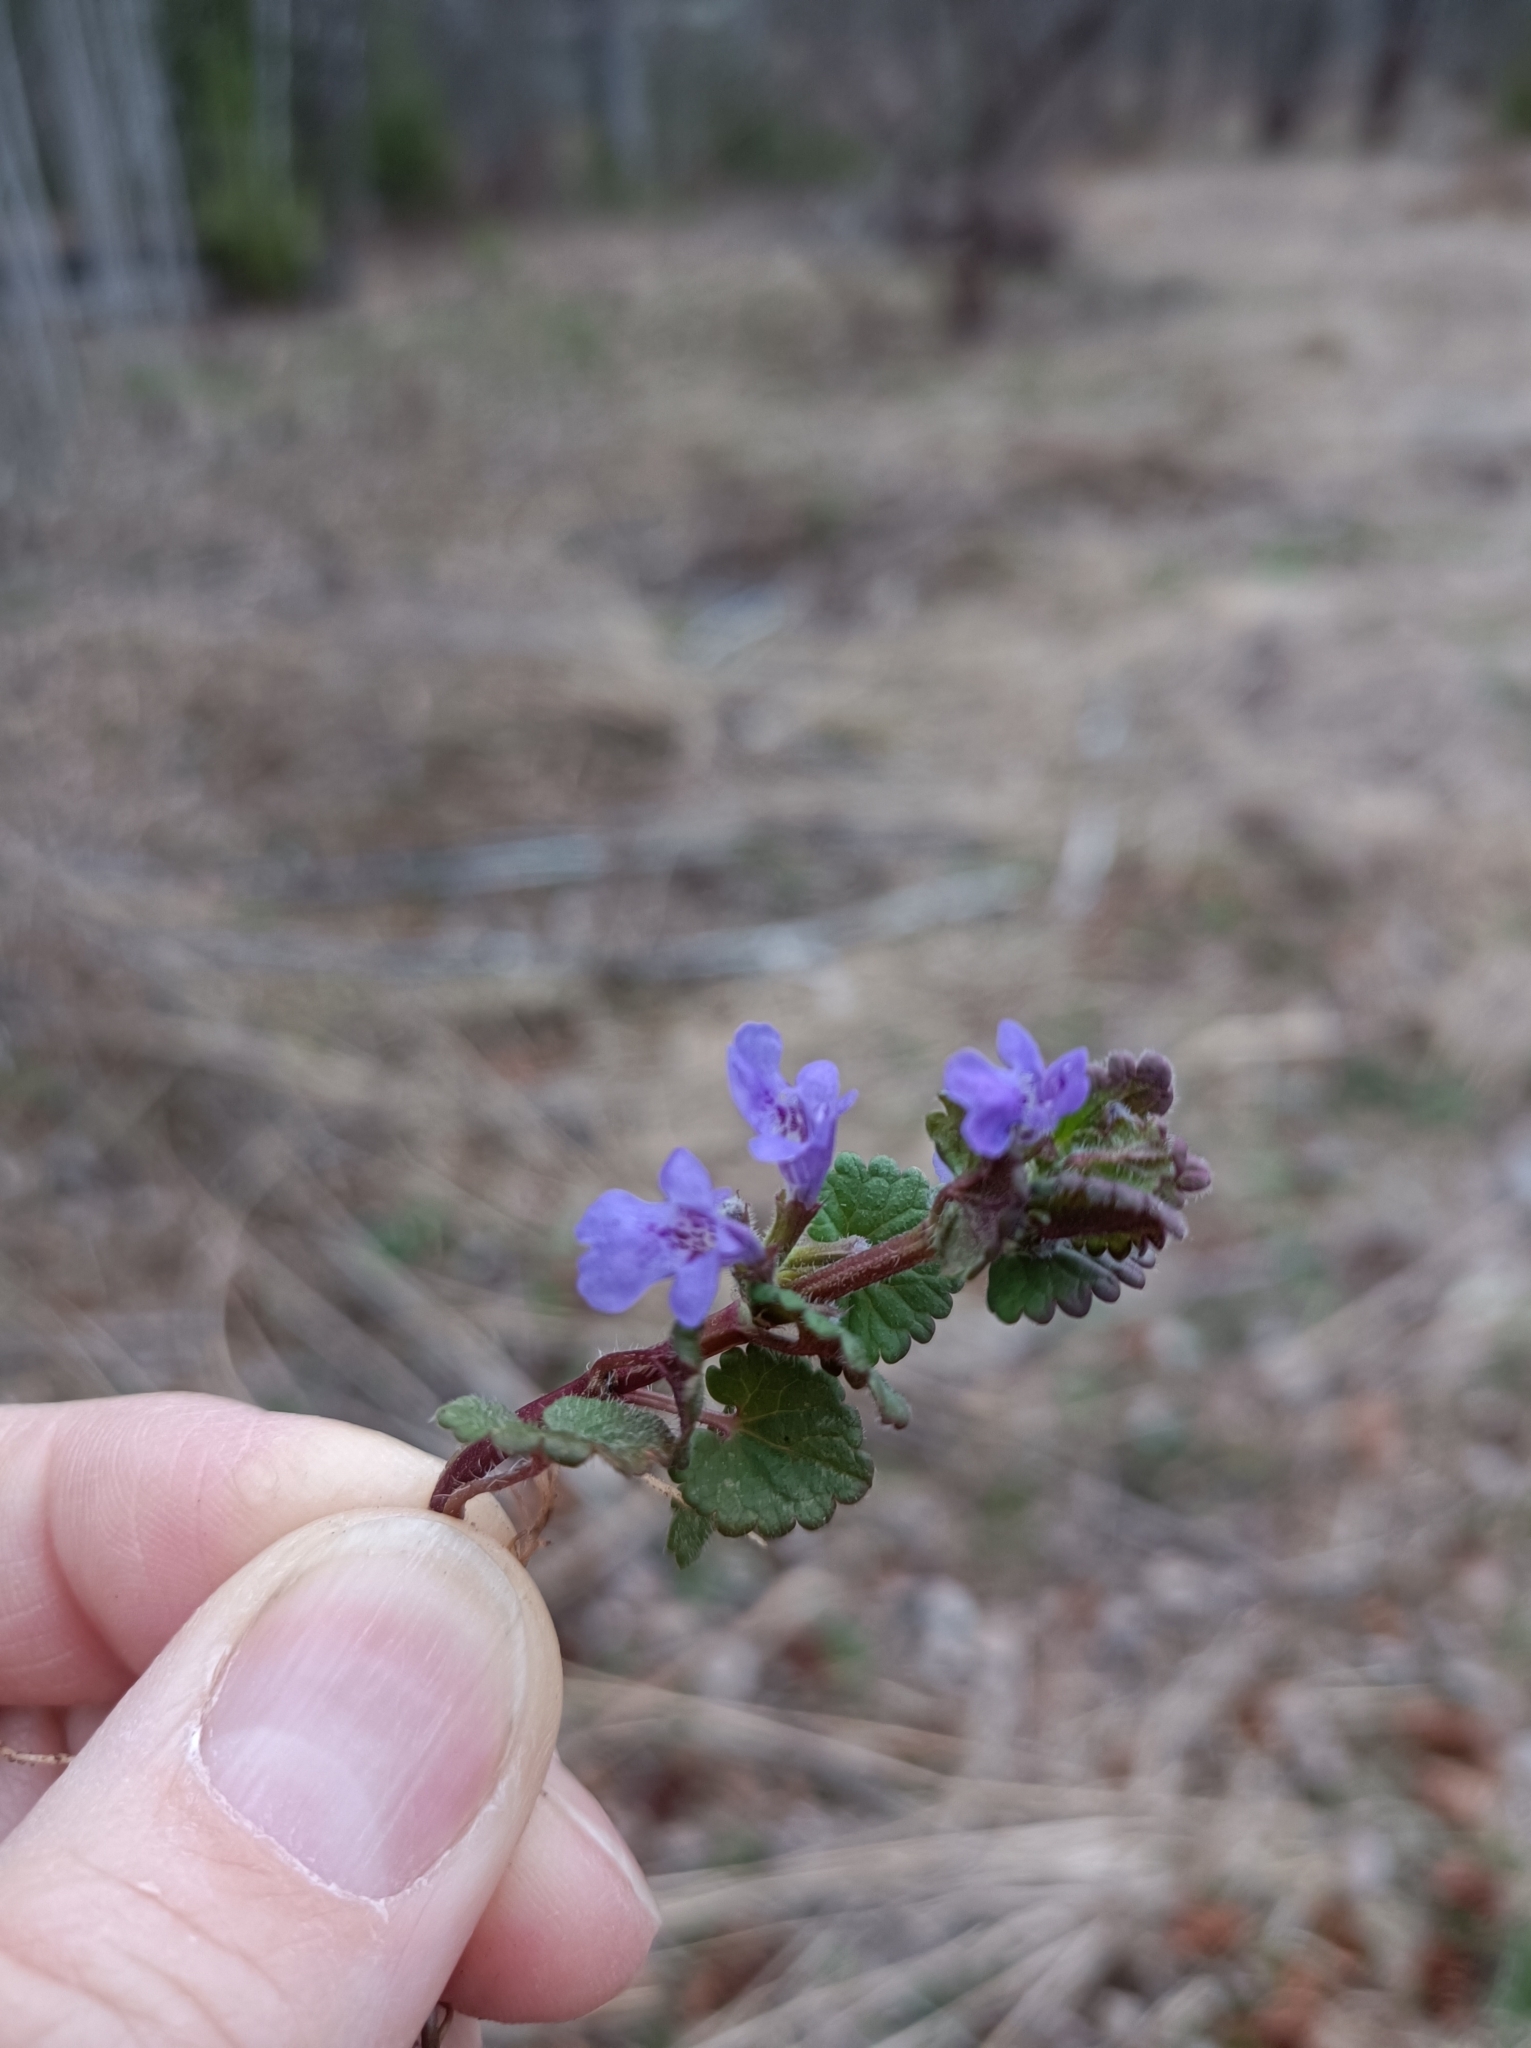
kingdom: Plantae
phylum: Tracheophyta
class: Magnoliopsida
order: Lamiales
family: Lamiaceae
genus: Glechoma
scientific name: Glechoma hederacea
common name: Ground ivy
